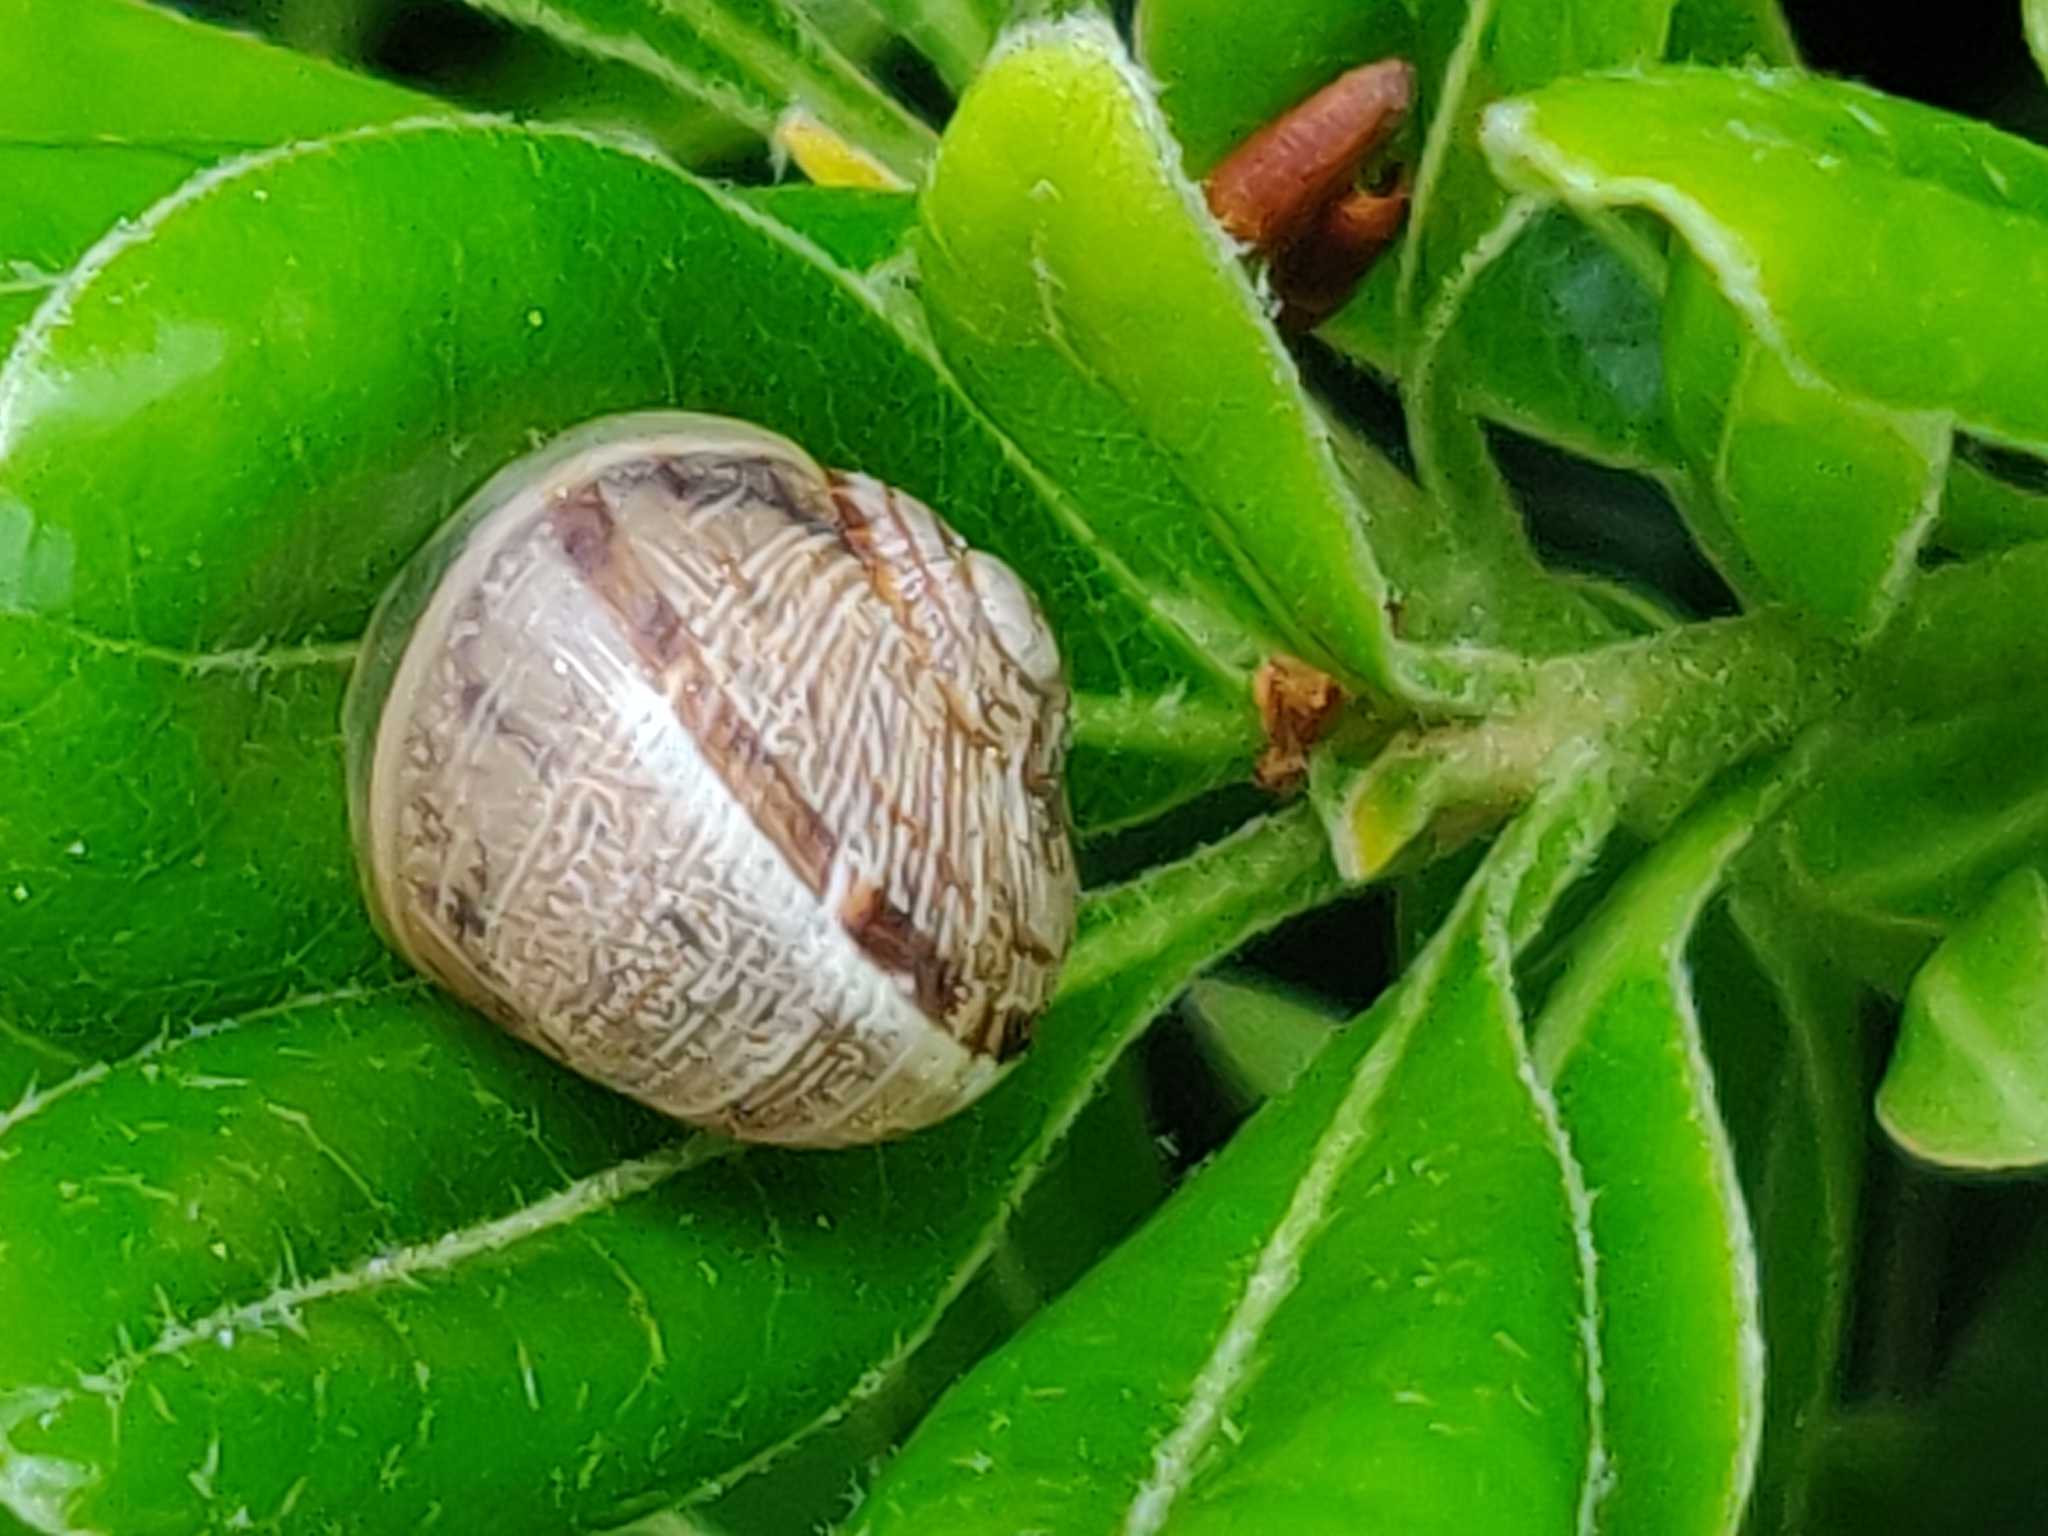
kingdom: Animalia
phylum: Mollusca
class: Gastropoda
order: Stylommatophora
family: Helicidae
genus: Cornu
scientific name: Cornu aspersum
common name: Brown garden snail
